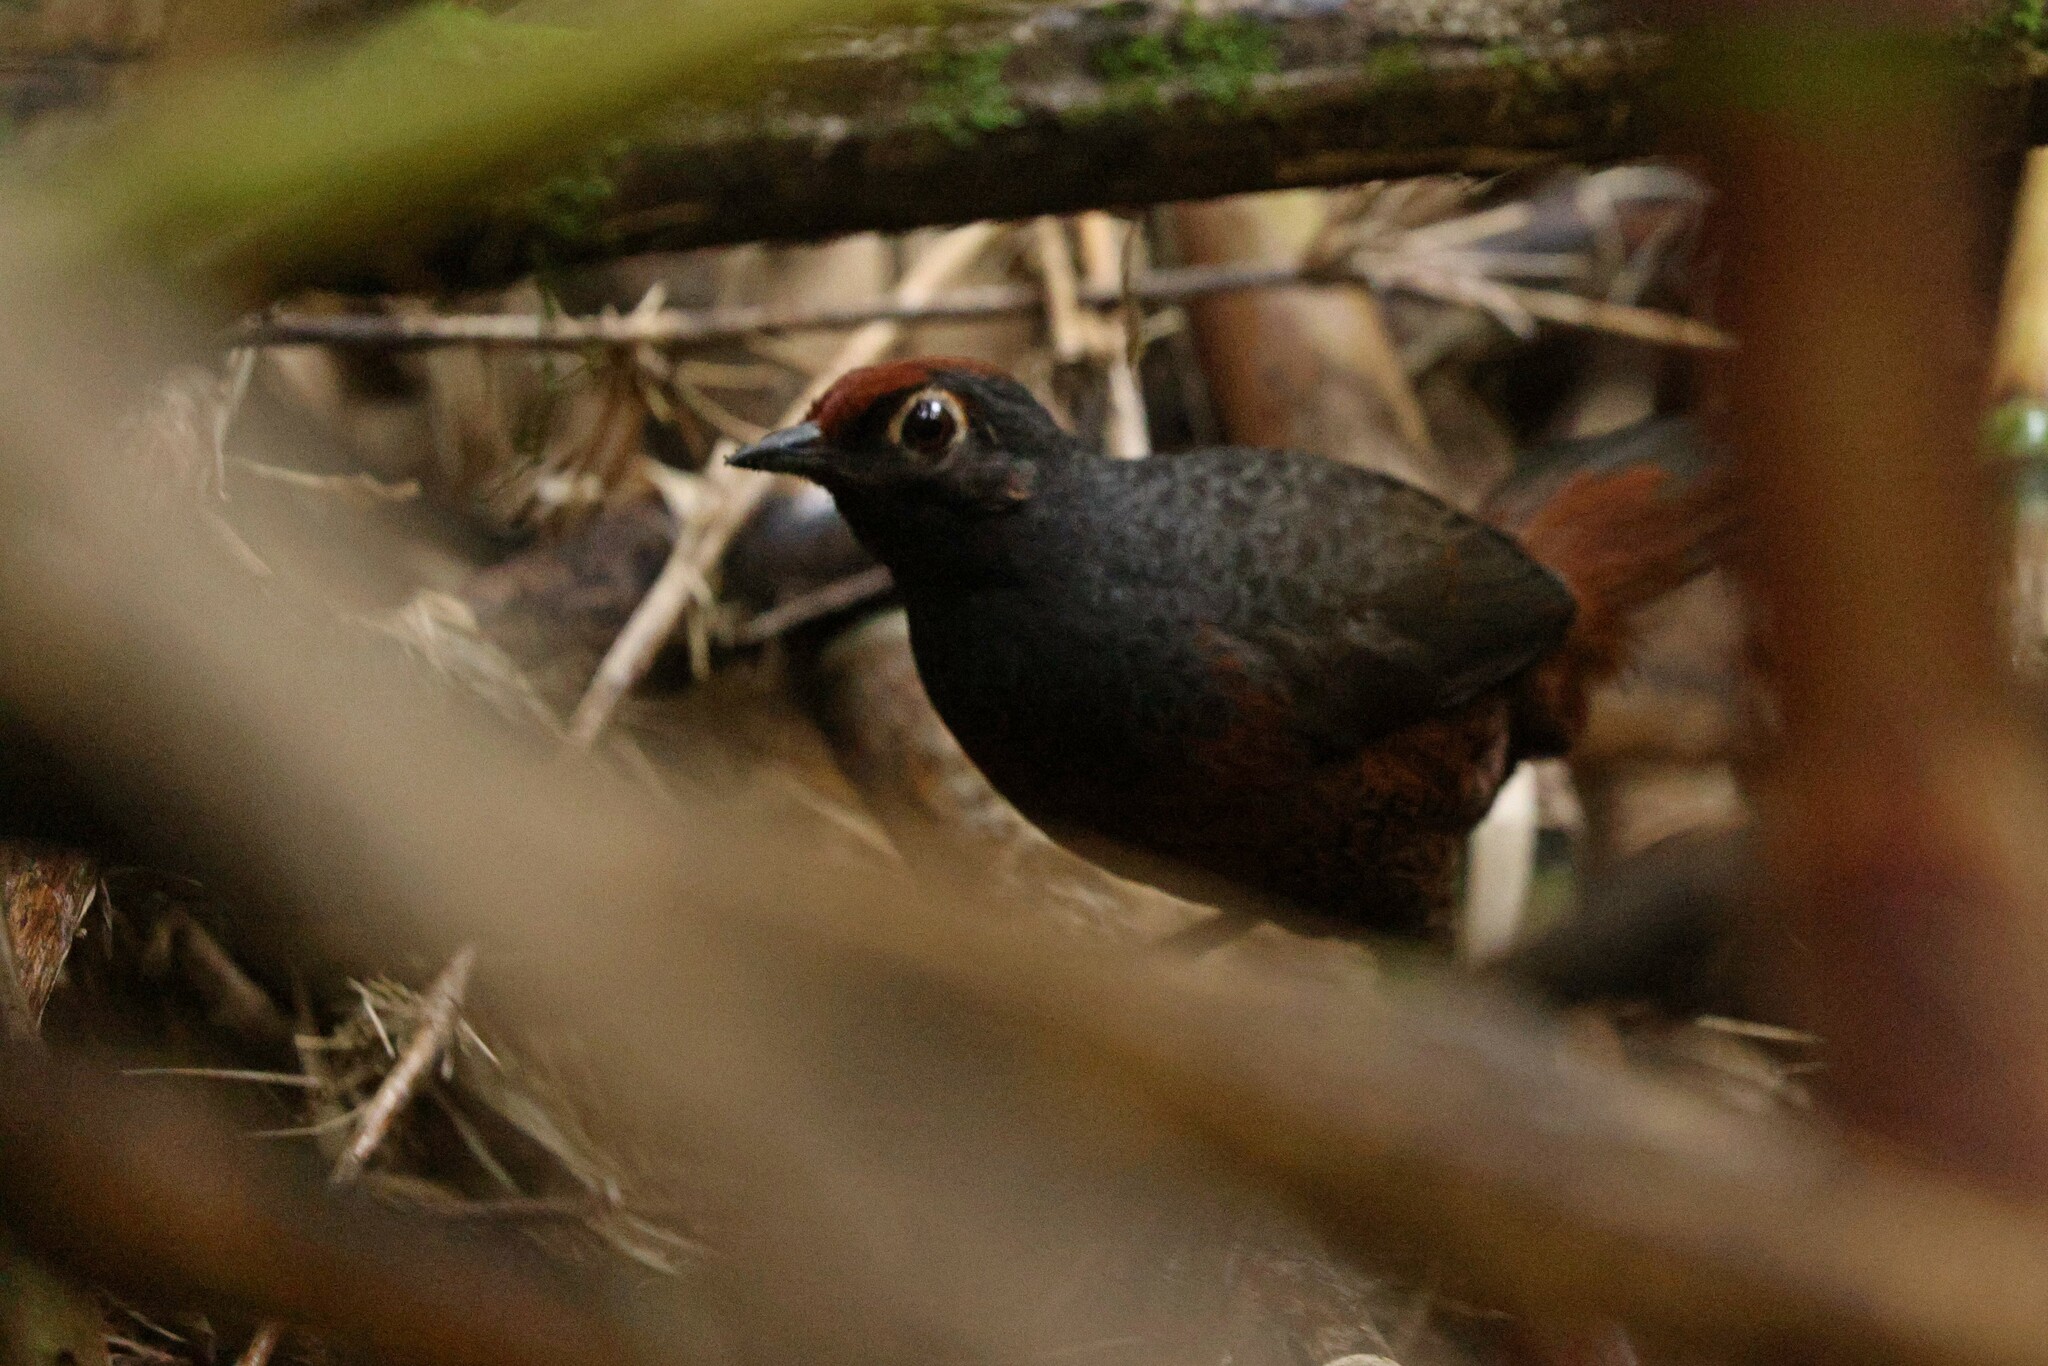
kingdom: Animalia
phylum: Chordata
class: Aves
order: Passeriformes
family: Rhinocryptidae
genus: Pteroptochos
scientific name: Pteroptochos tarnii
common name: Black-throated huet-huet
